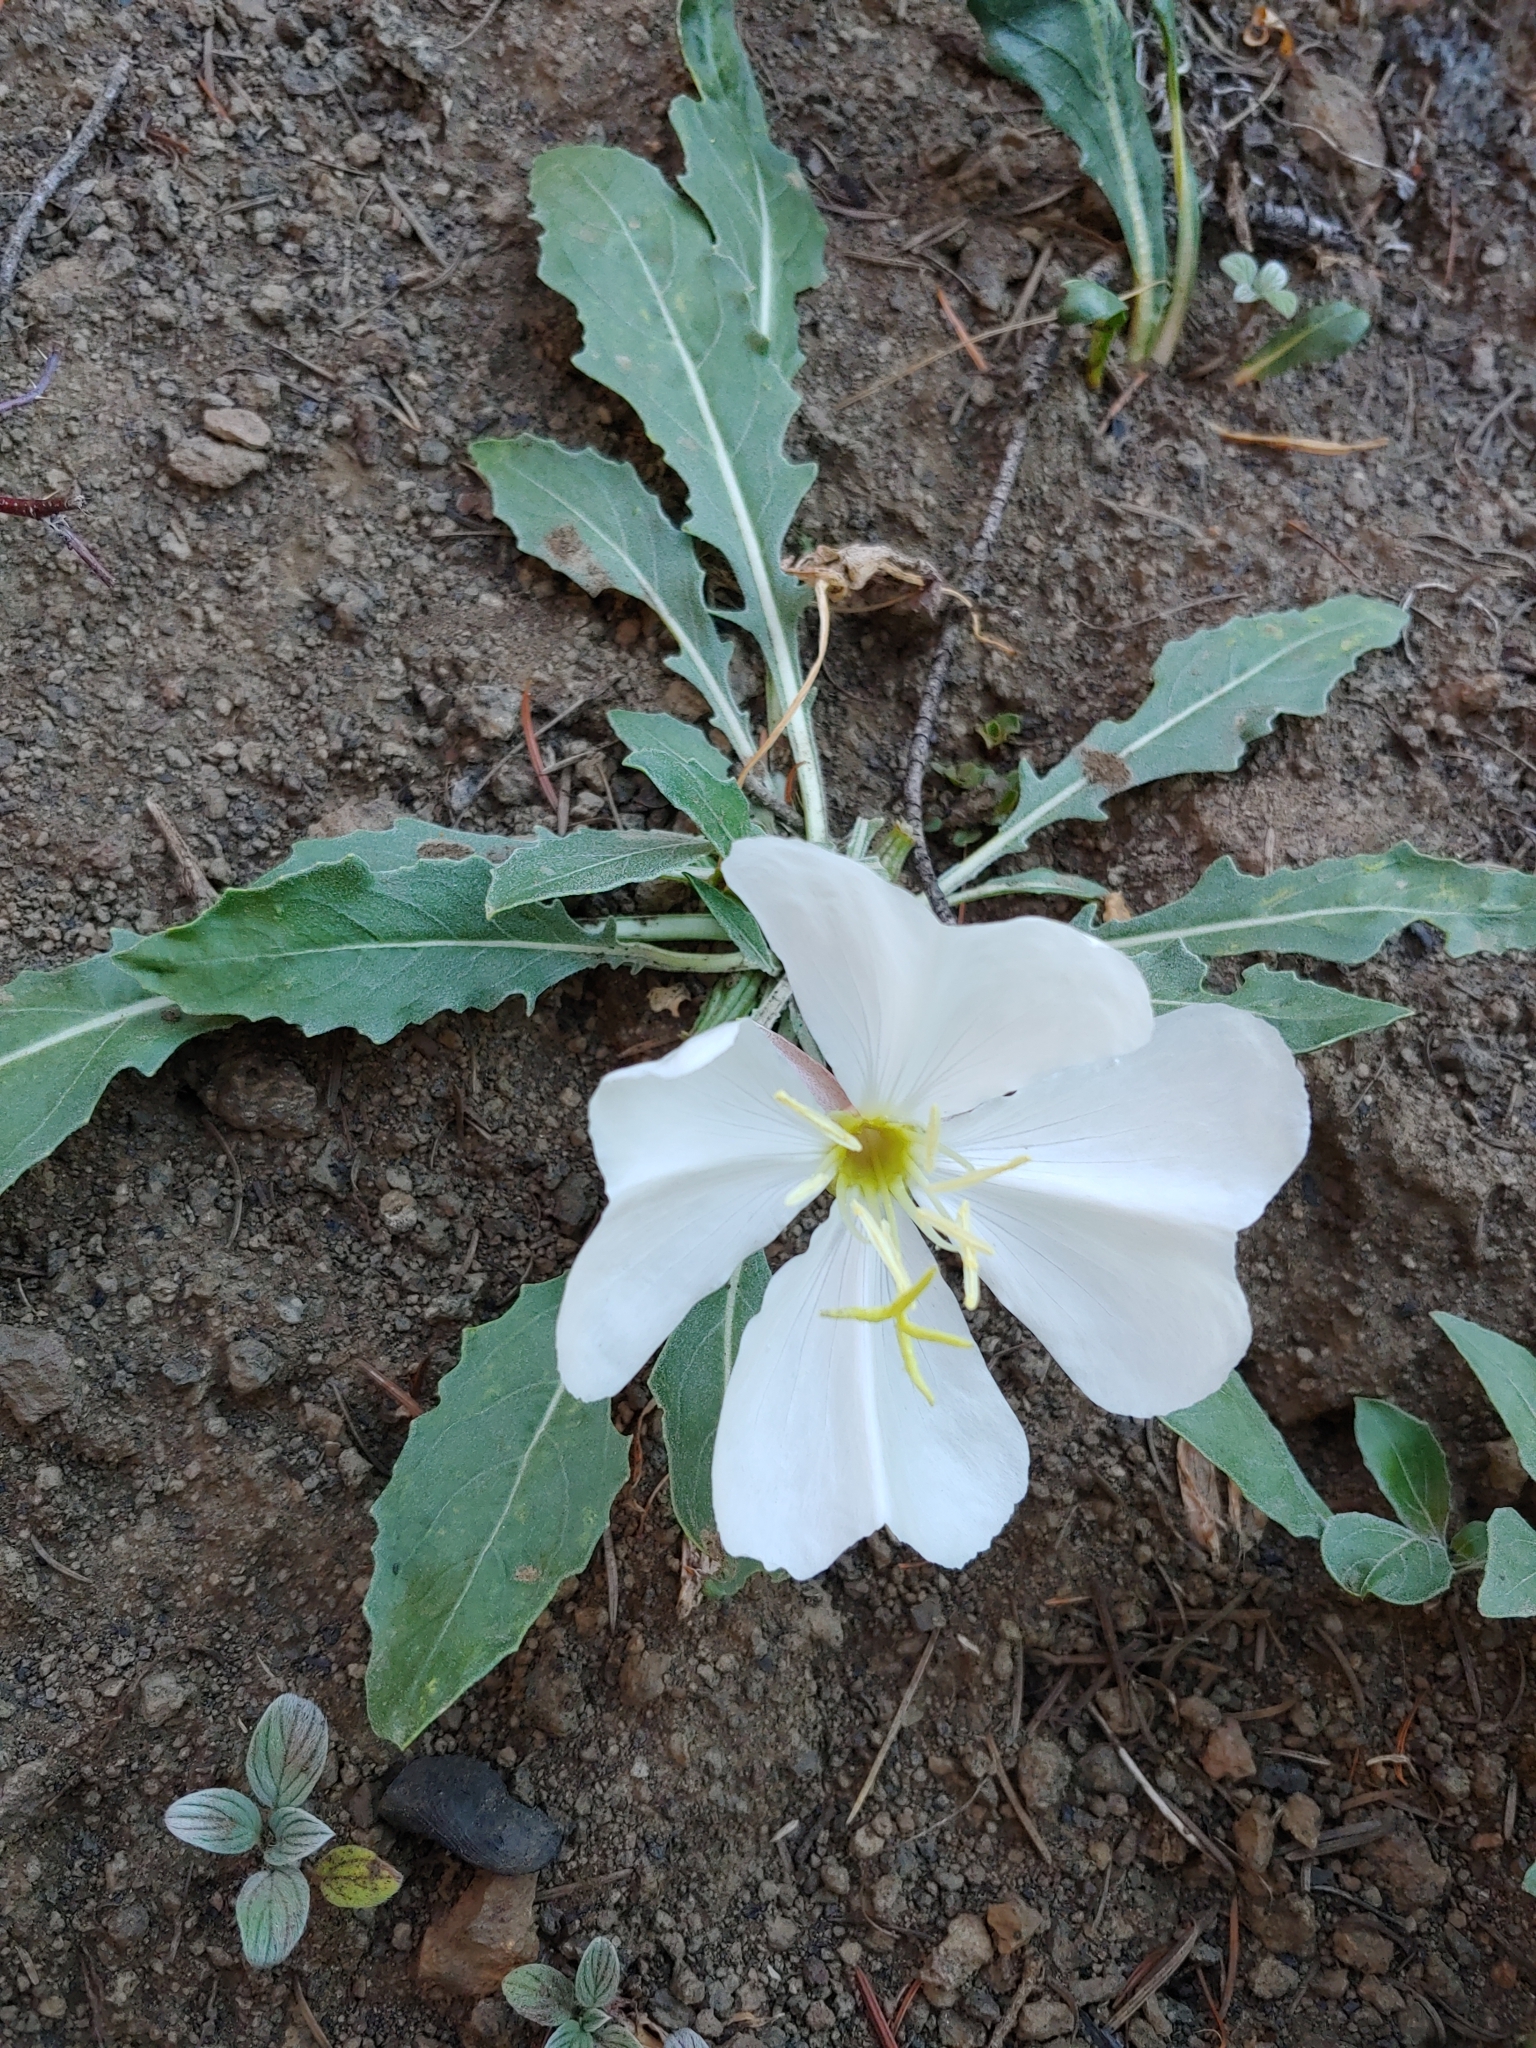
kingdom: Plantae
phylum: Tracheophyta
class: Magnoliopsida
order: Myrtales
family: Onagraceae
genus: Oenothera
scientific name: Oenothera cespitosa
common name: Tufted evening-primrose
